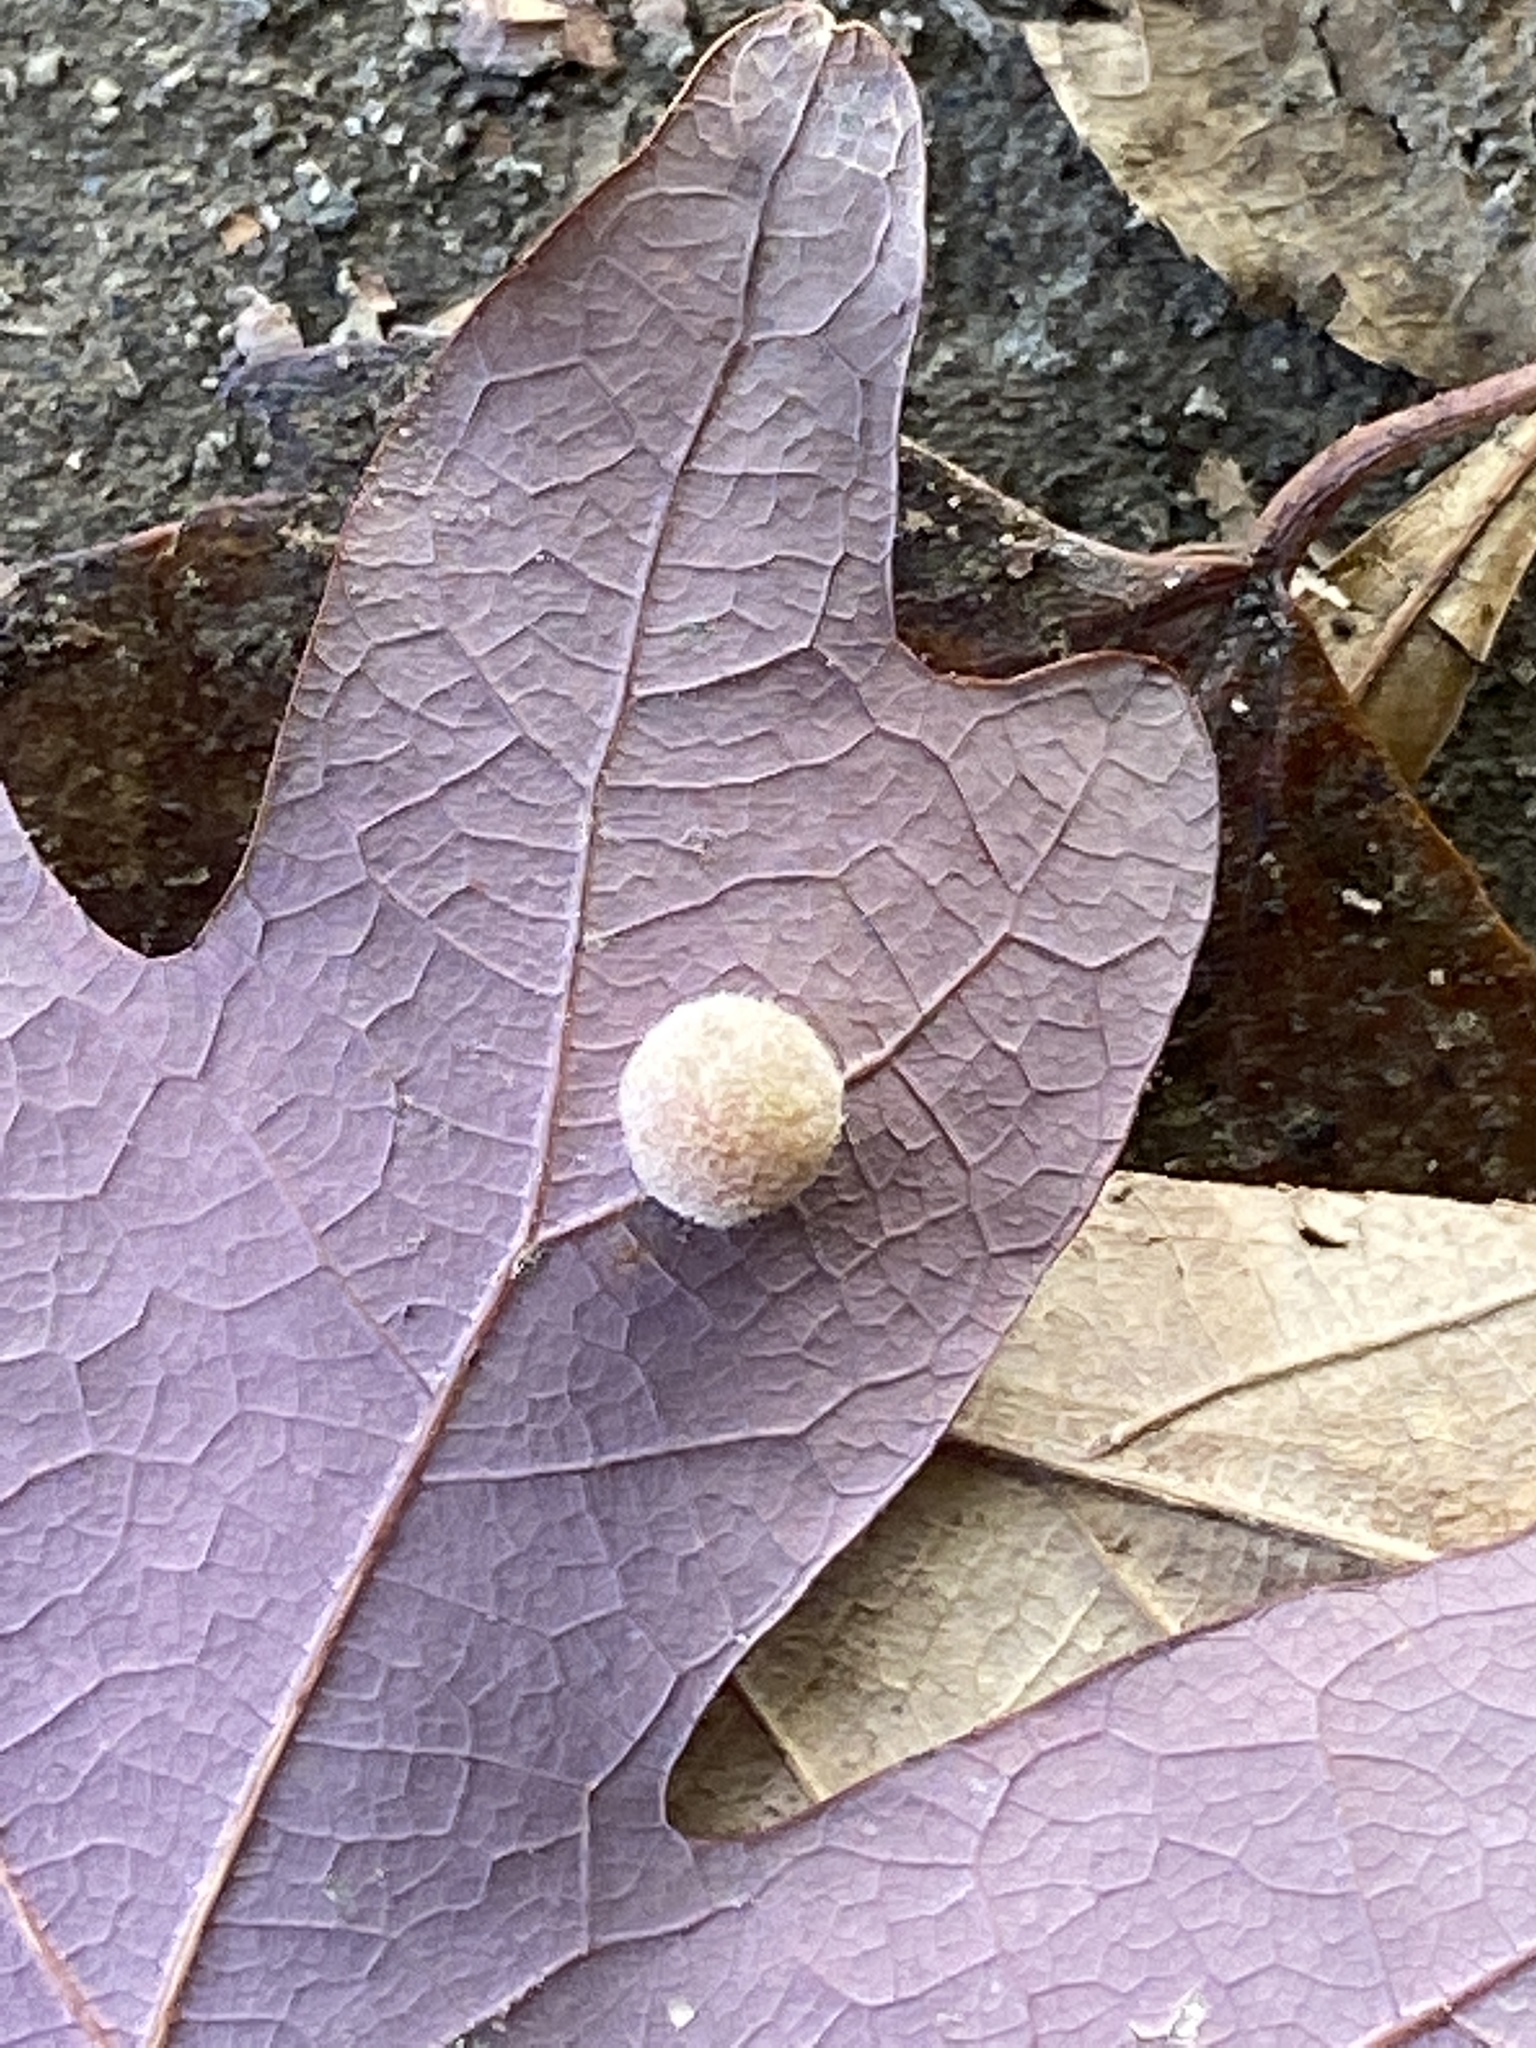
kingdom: Animalia
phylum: Arthropoda
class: Insecta
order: Hymenoptera
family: Cynipidae
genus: Philonix
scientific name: Philonix fulvicollis
